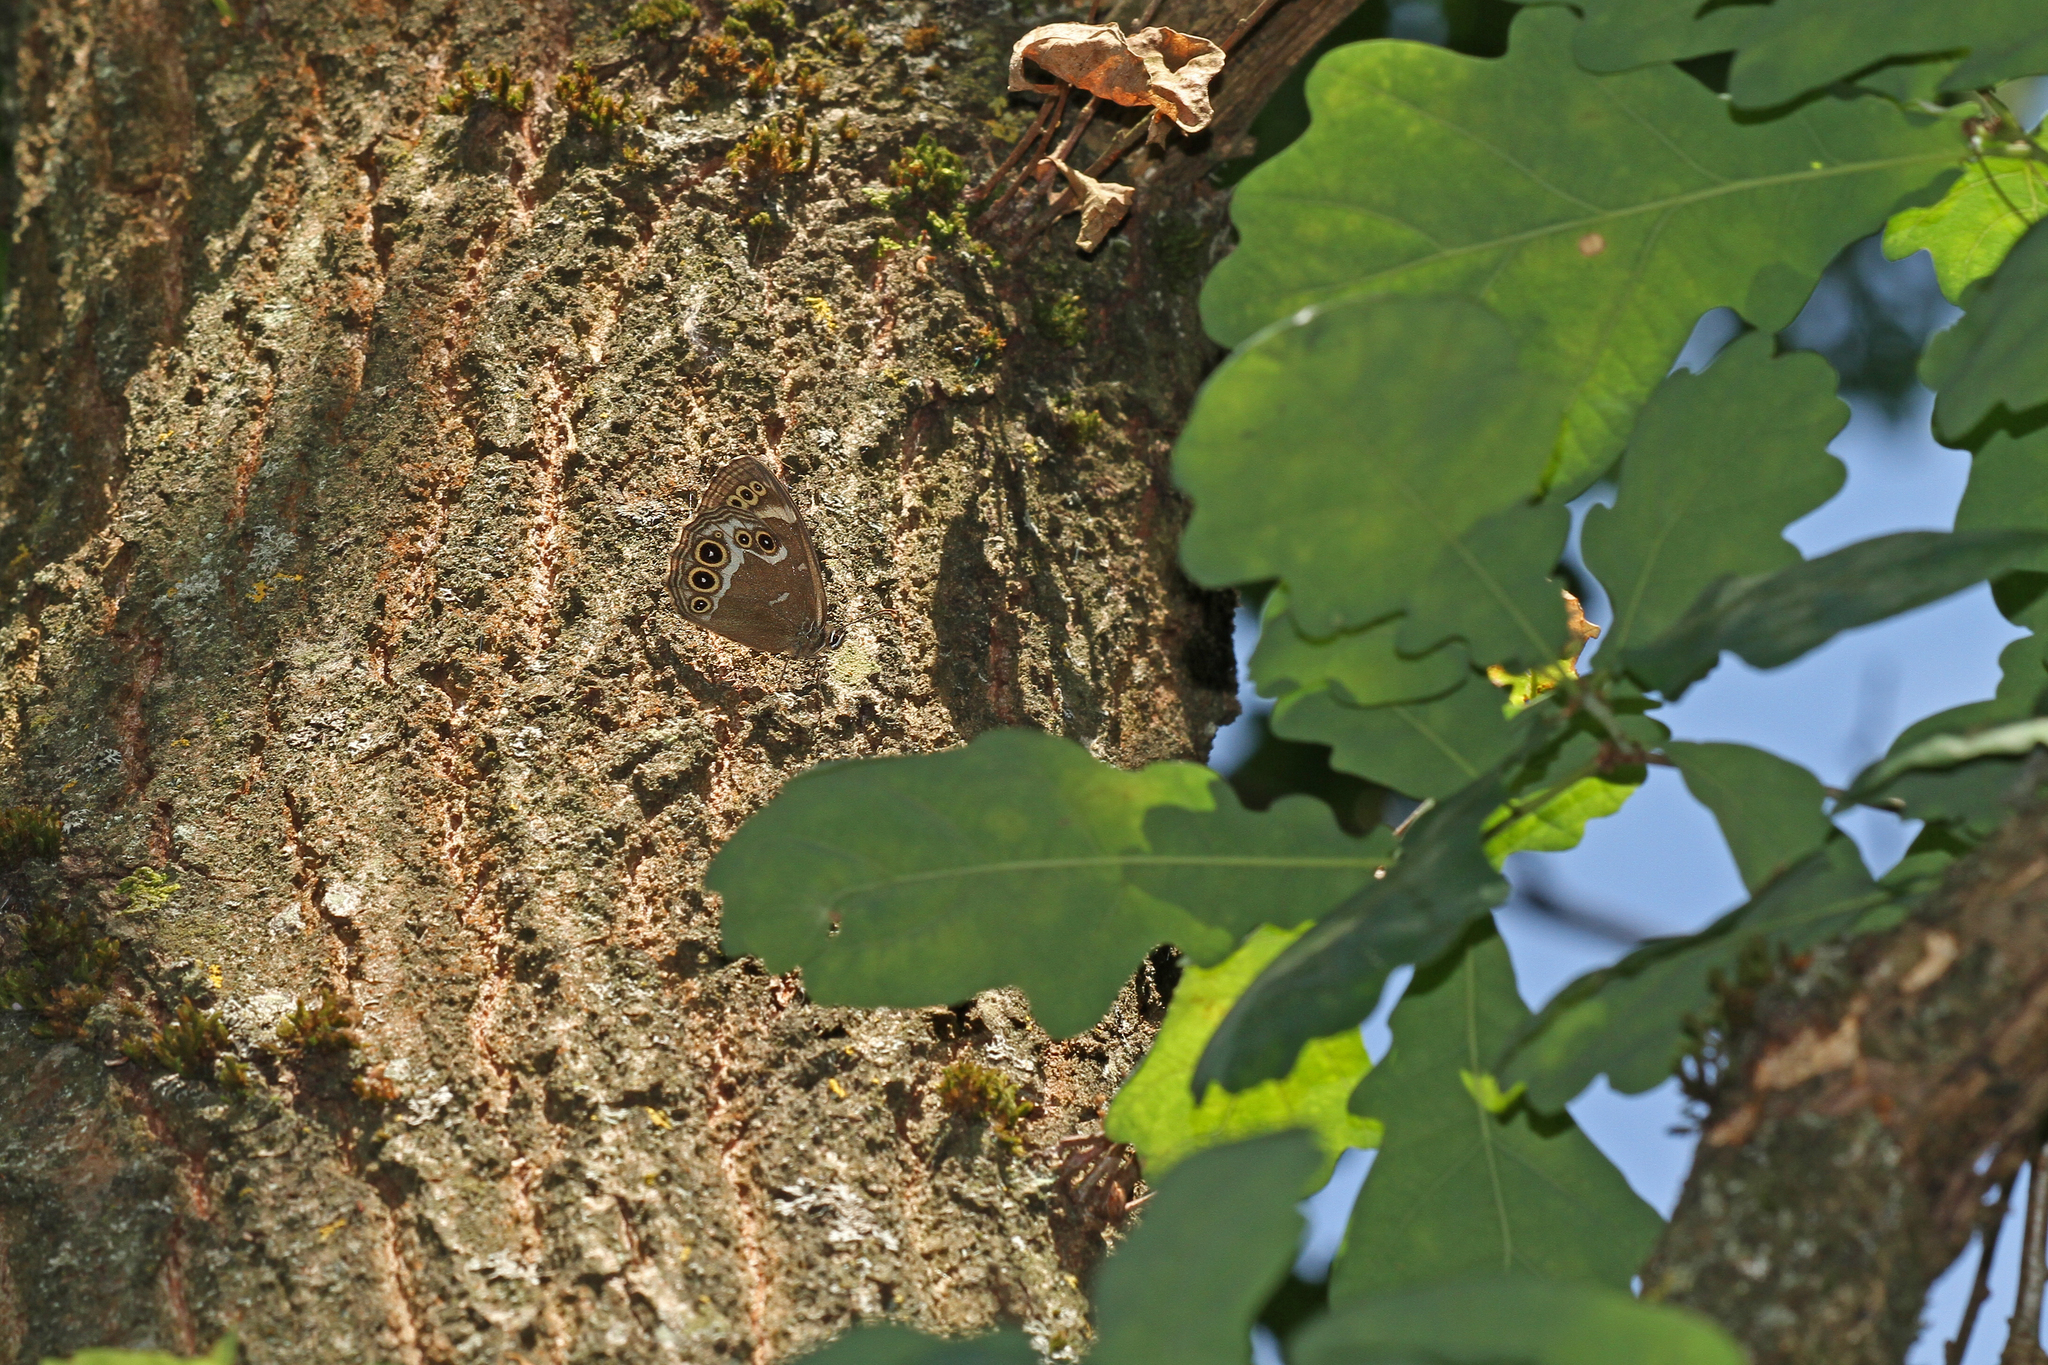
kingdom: Animalia
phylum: Arthropoda
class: Insecta
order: Lepidoptera
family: Nymphalidae
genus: Pararge
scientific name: Pararge Lopinga achine
